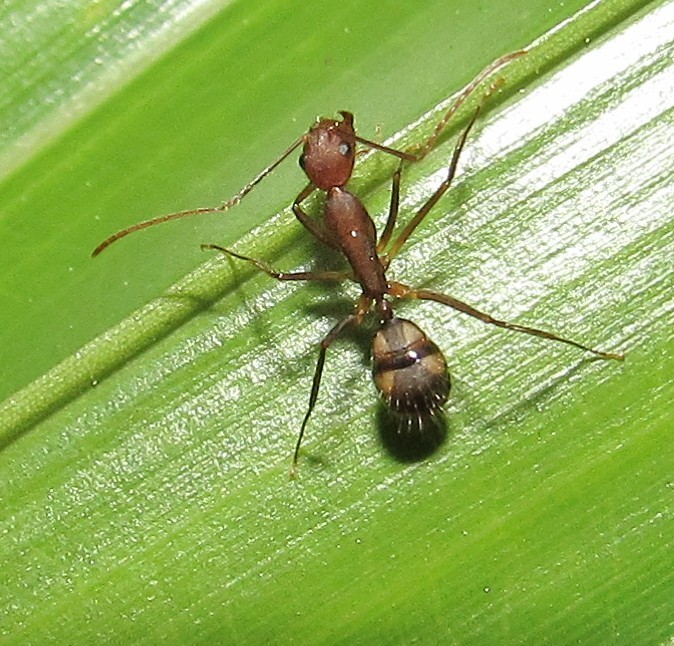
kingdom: Animalia
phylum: Arthropoda
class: Insecta
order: Hymenoptera
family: Formicidae
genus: Camponotus
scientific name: Camponotus cingulatus
